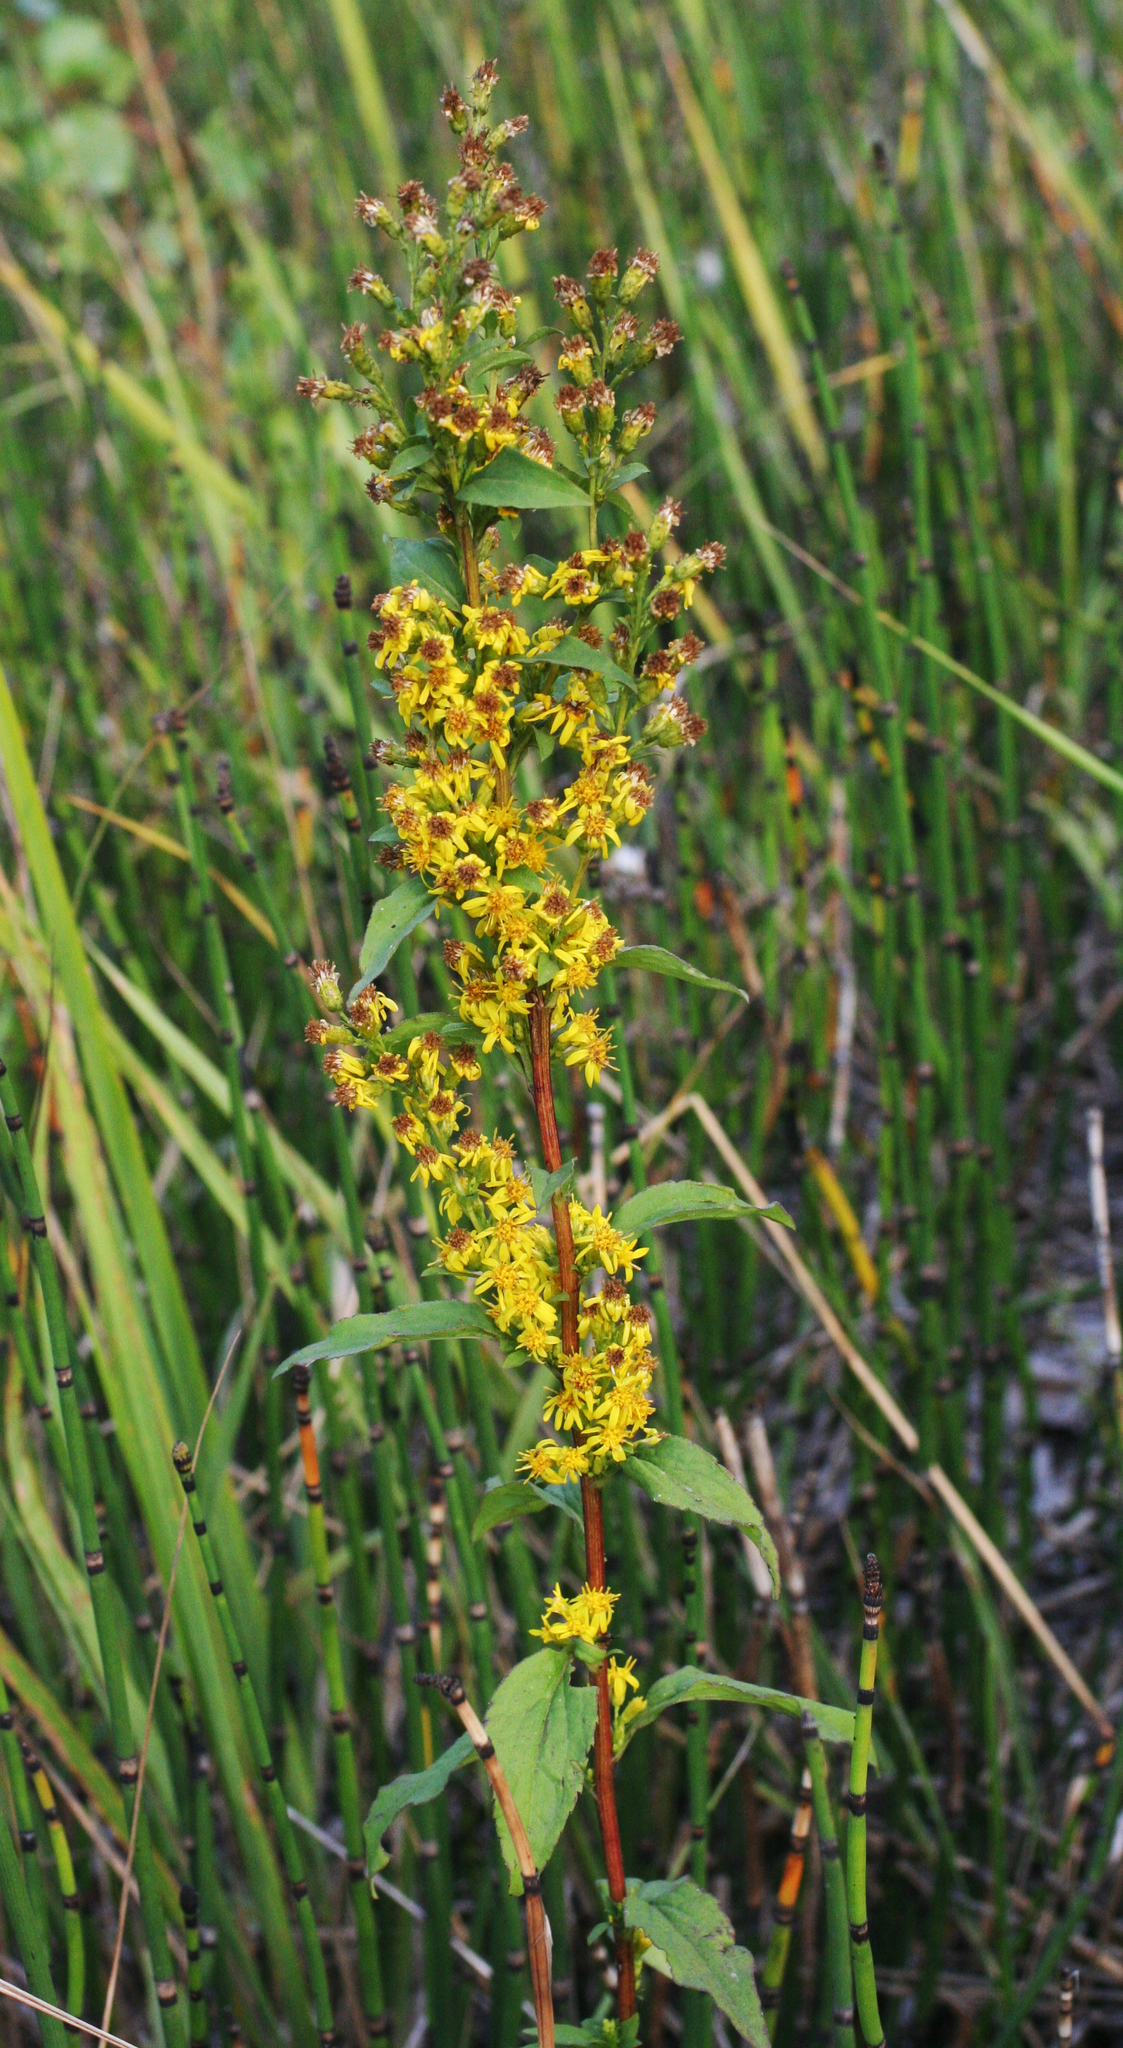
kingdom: Plantae
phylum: Tracheophyta
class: Magnoliopsida
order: Asterales
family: Asteraceae
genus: Solidago
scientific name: Solidago virgaurea
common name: Goldenrod
